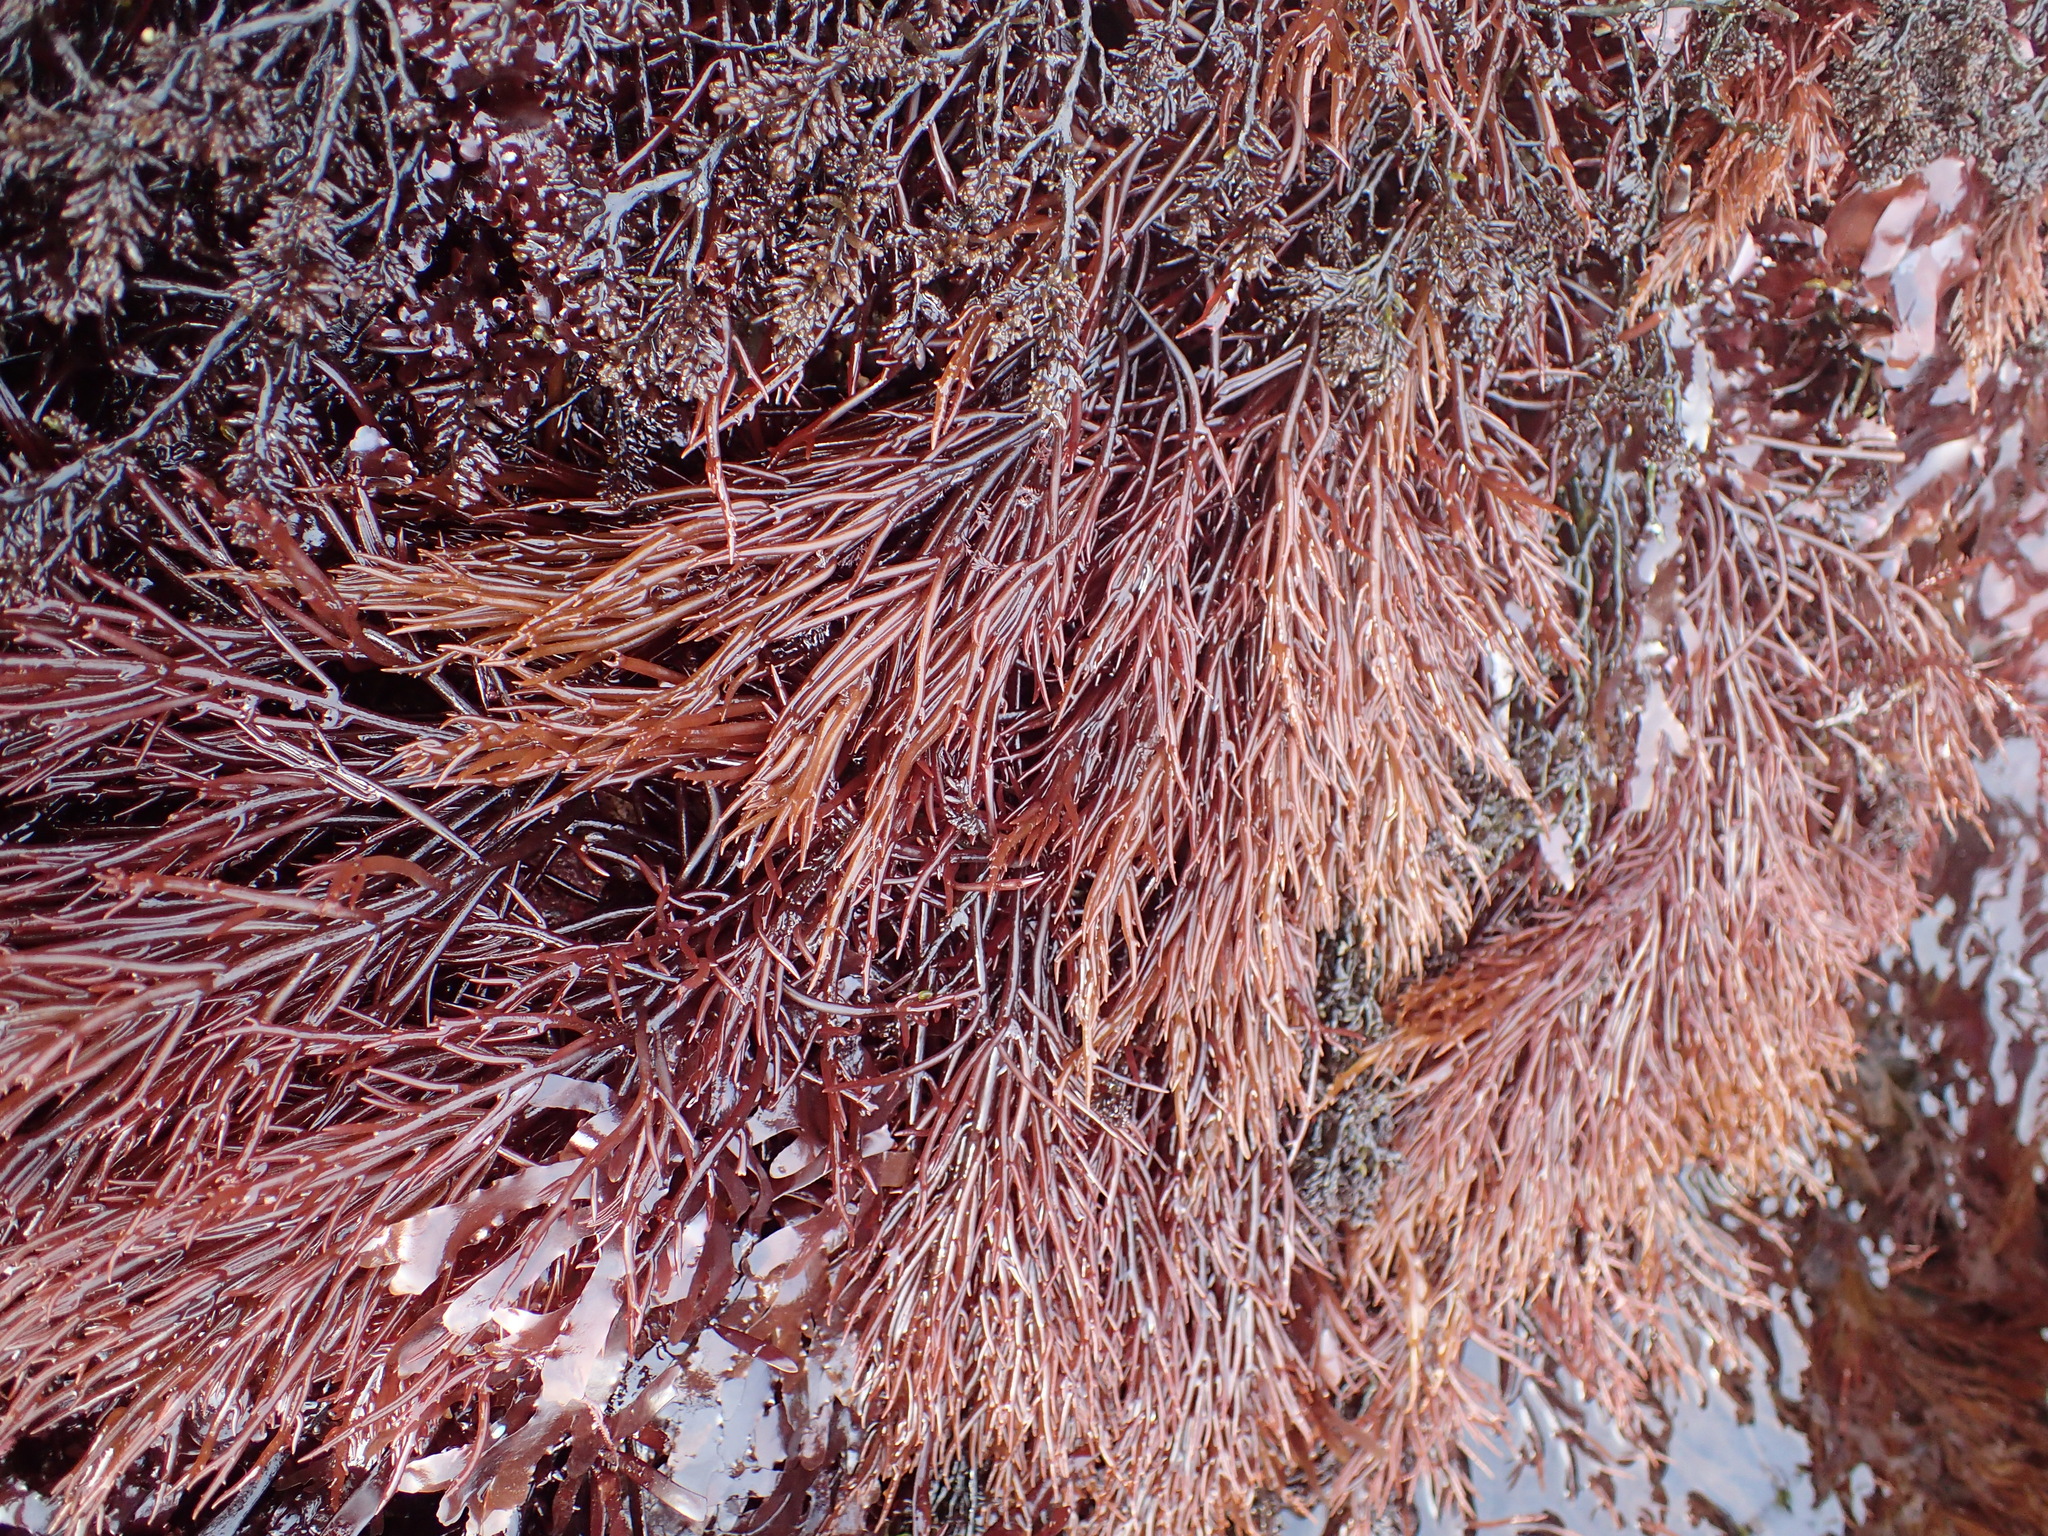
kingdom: Plantae
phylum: Rhodophyta
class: Florideophyceae
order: Gigartinales
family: Solieriaceae
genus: Sarcodiotheca
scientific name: Sarcodiotheca gaudichaudii
